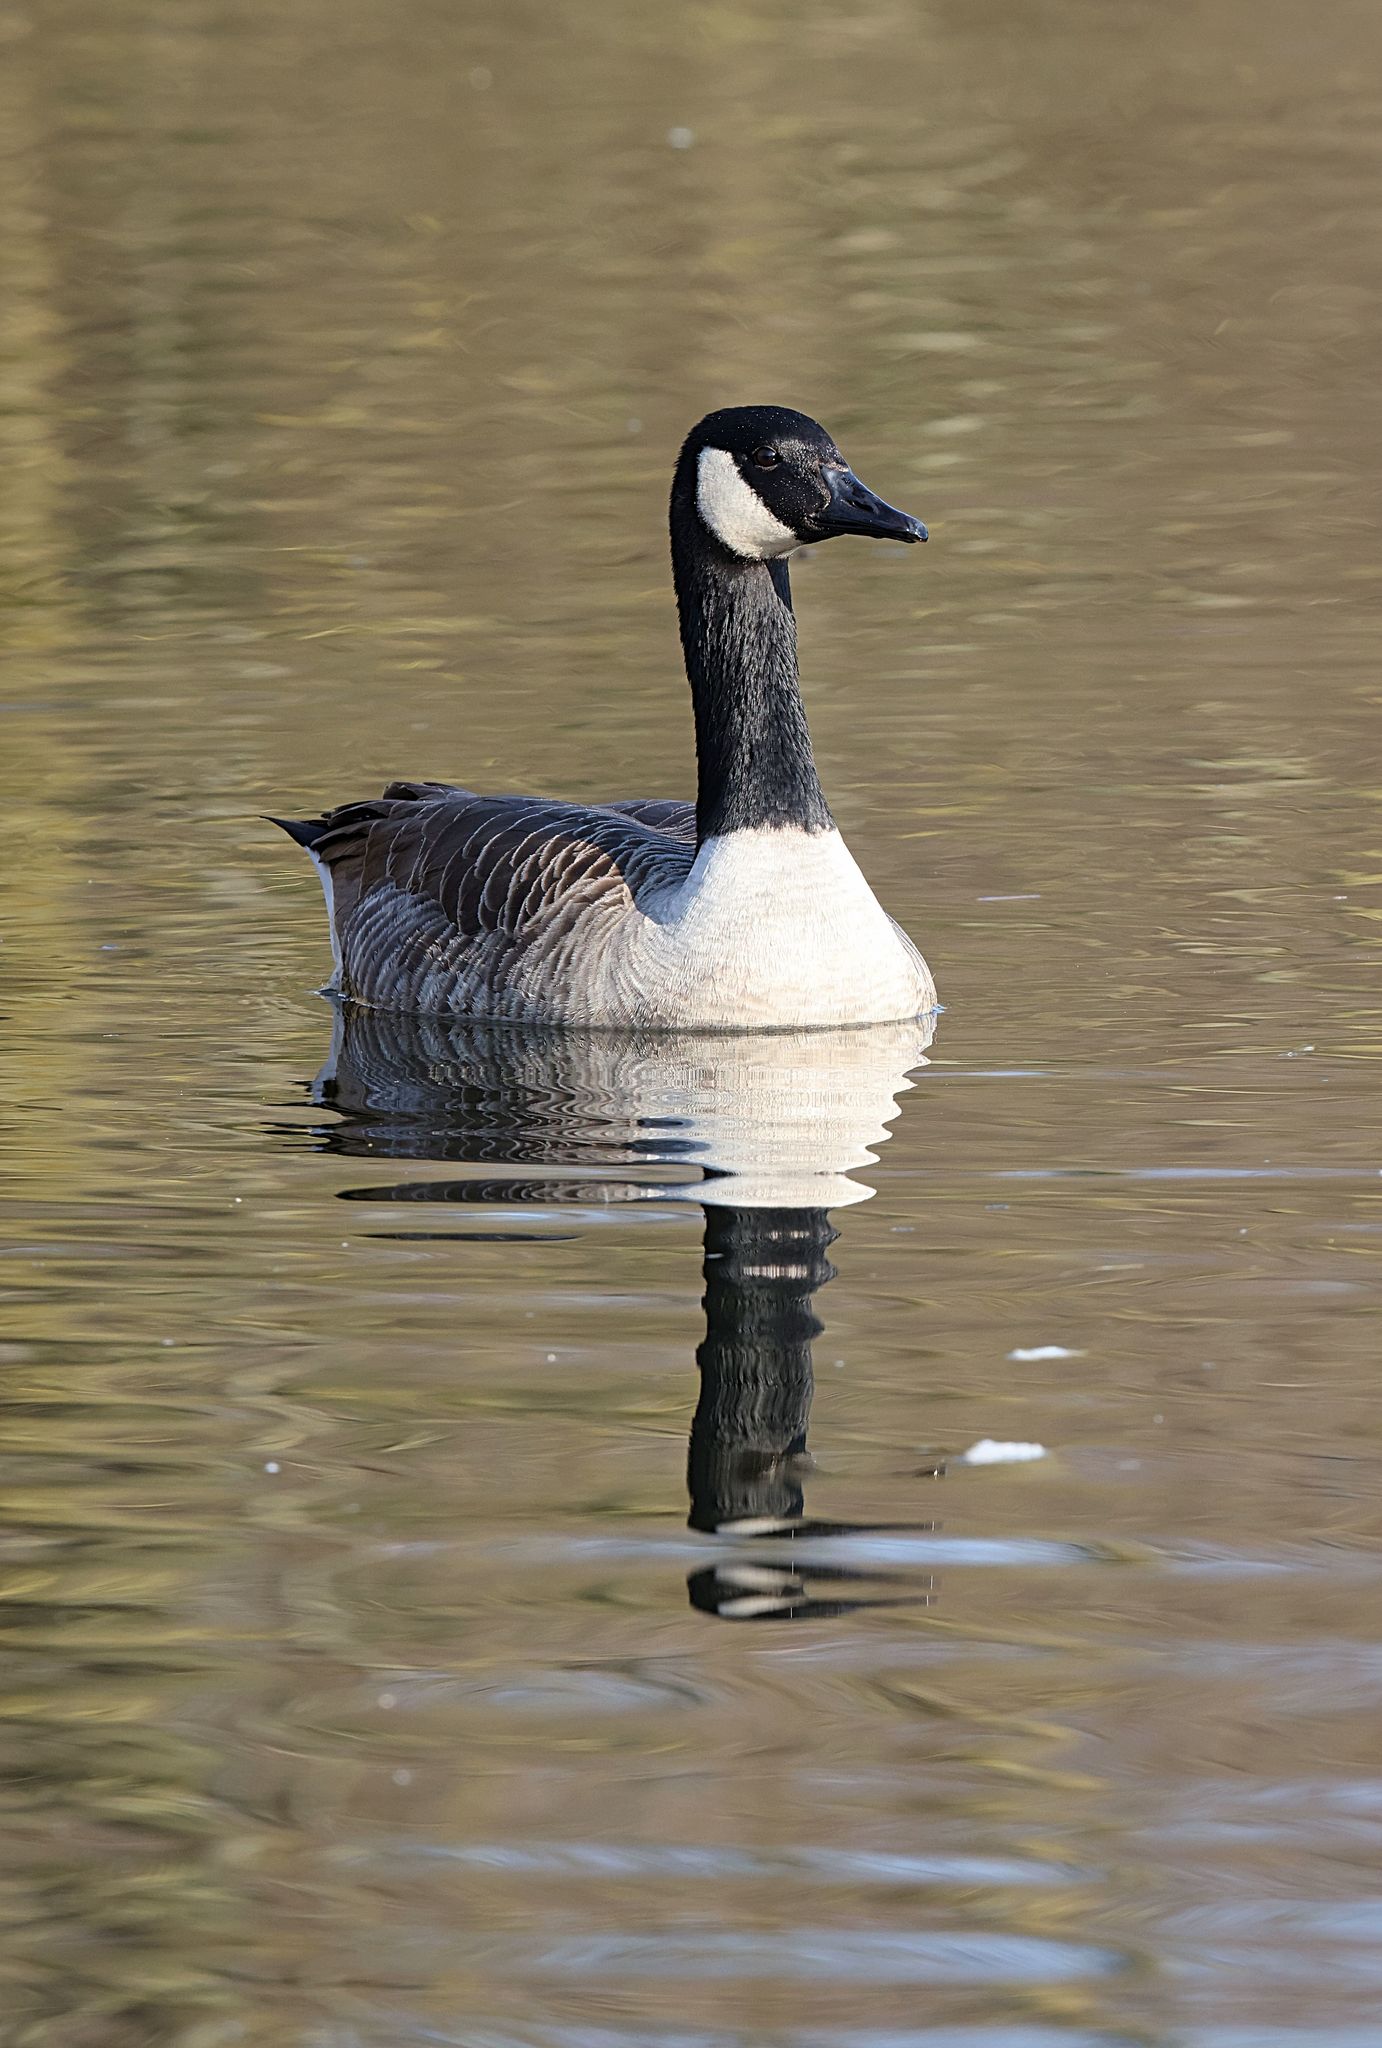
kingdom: Animalia
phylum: Chordata
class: Aves
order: Anseriformes
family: Anatidae
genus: Branta
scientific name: Branta canadensis
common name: Canada goose
